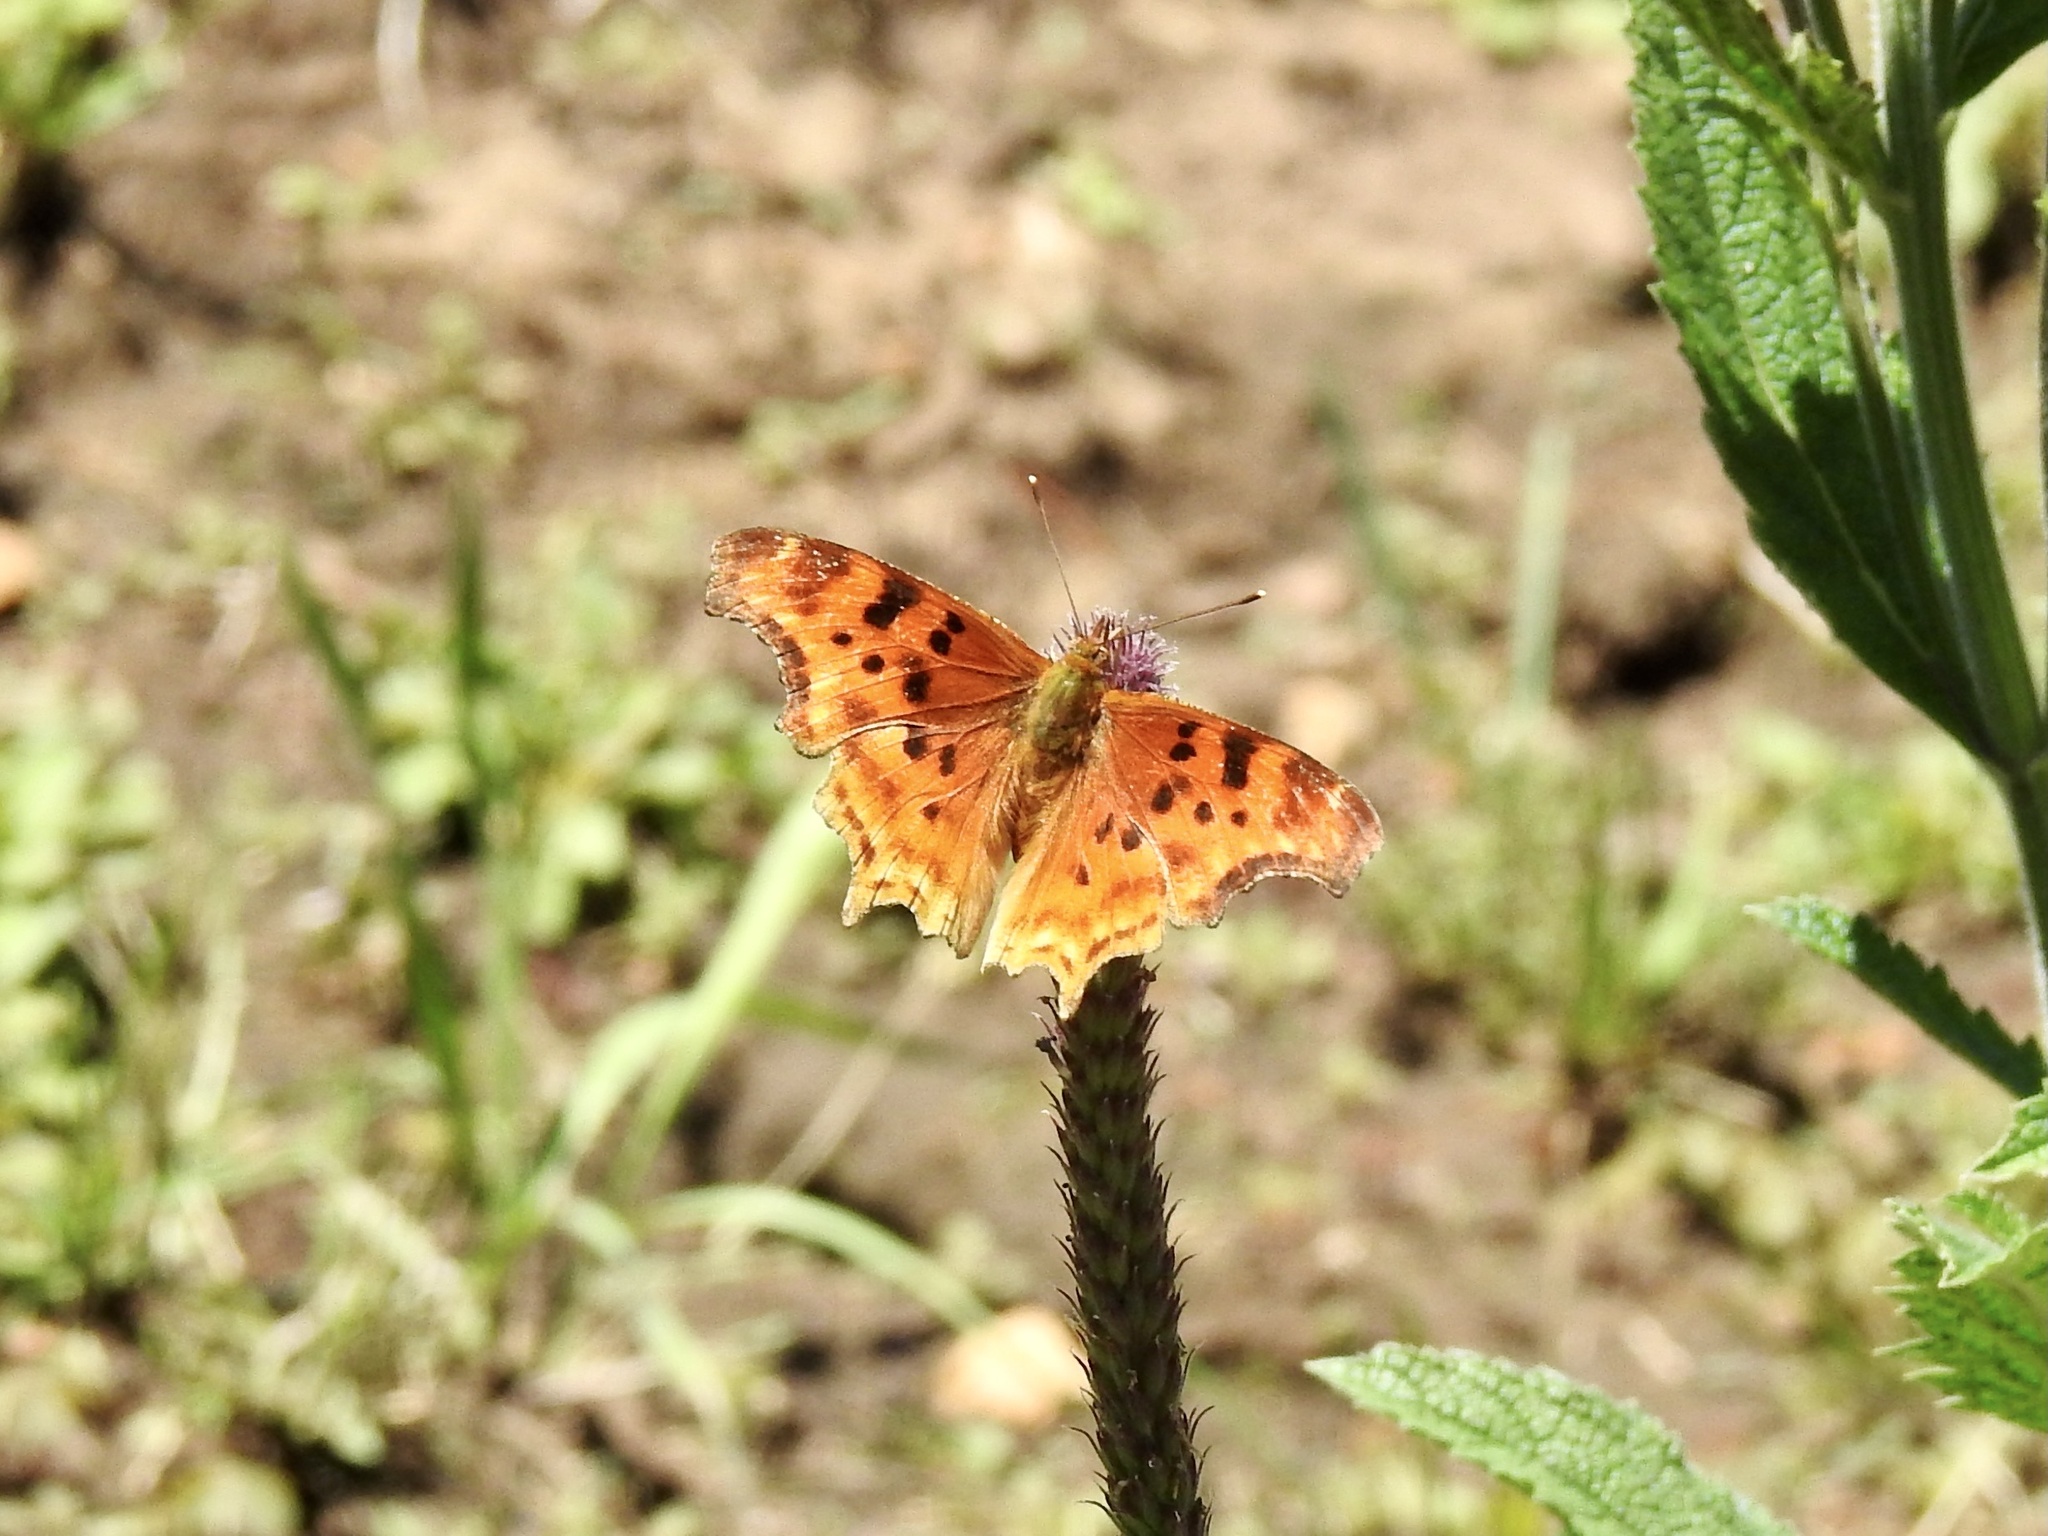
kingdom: Animalia
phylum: Arthropoda
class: Insecta
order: Lepidoptera
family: Nymphalidae
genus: Polygonia
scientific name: Polygonia satyrus
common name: Satyr angle wing
